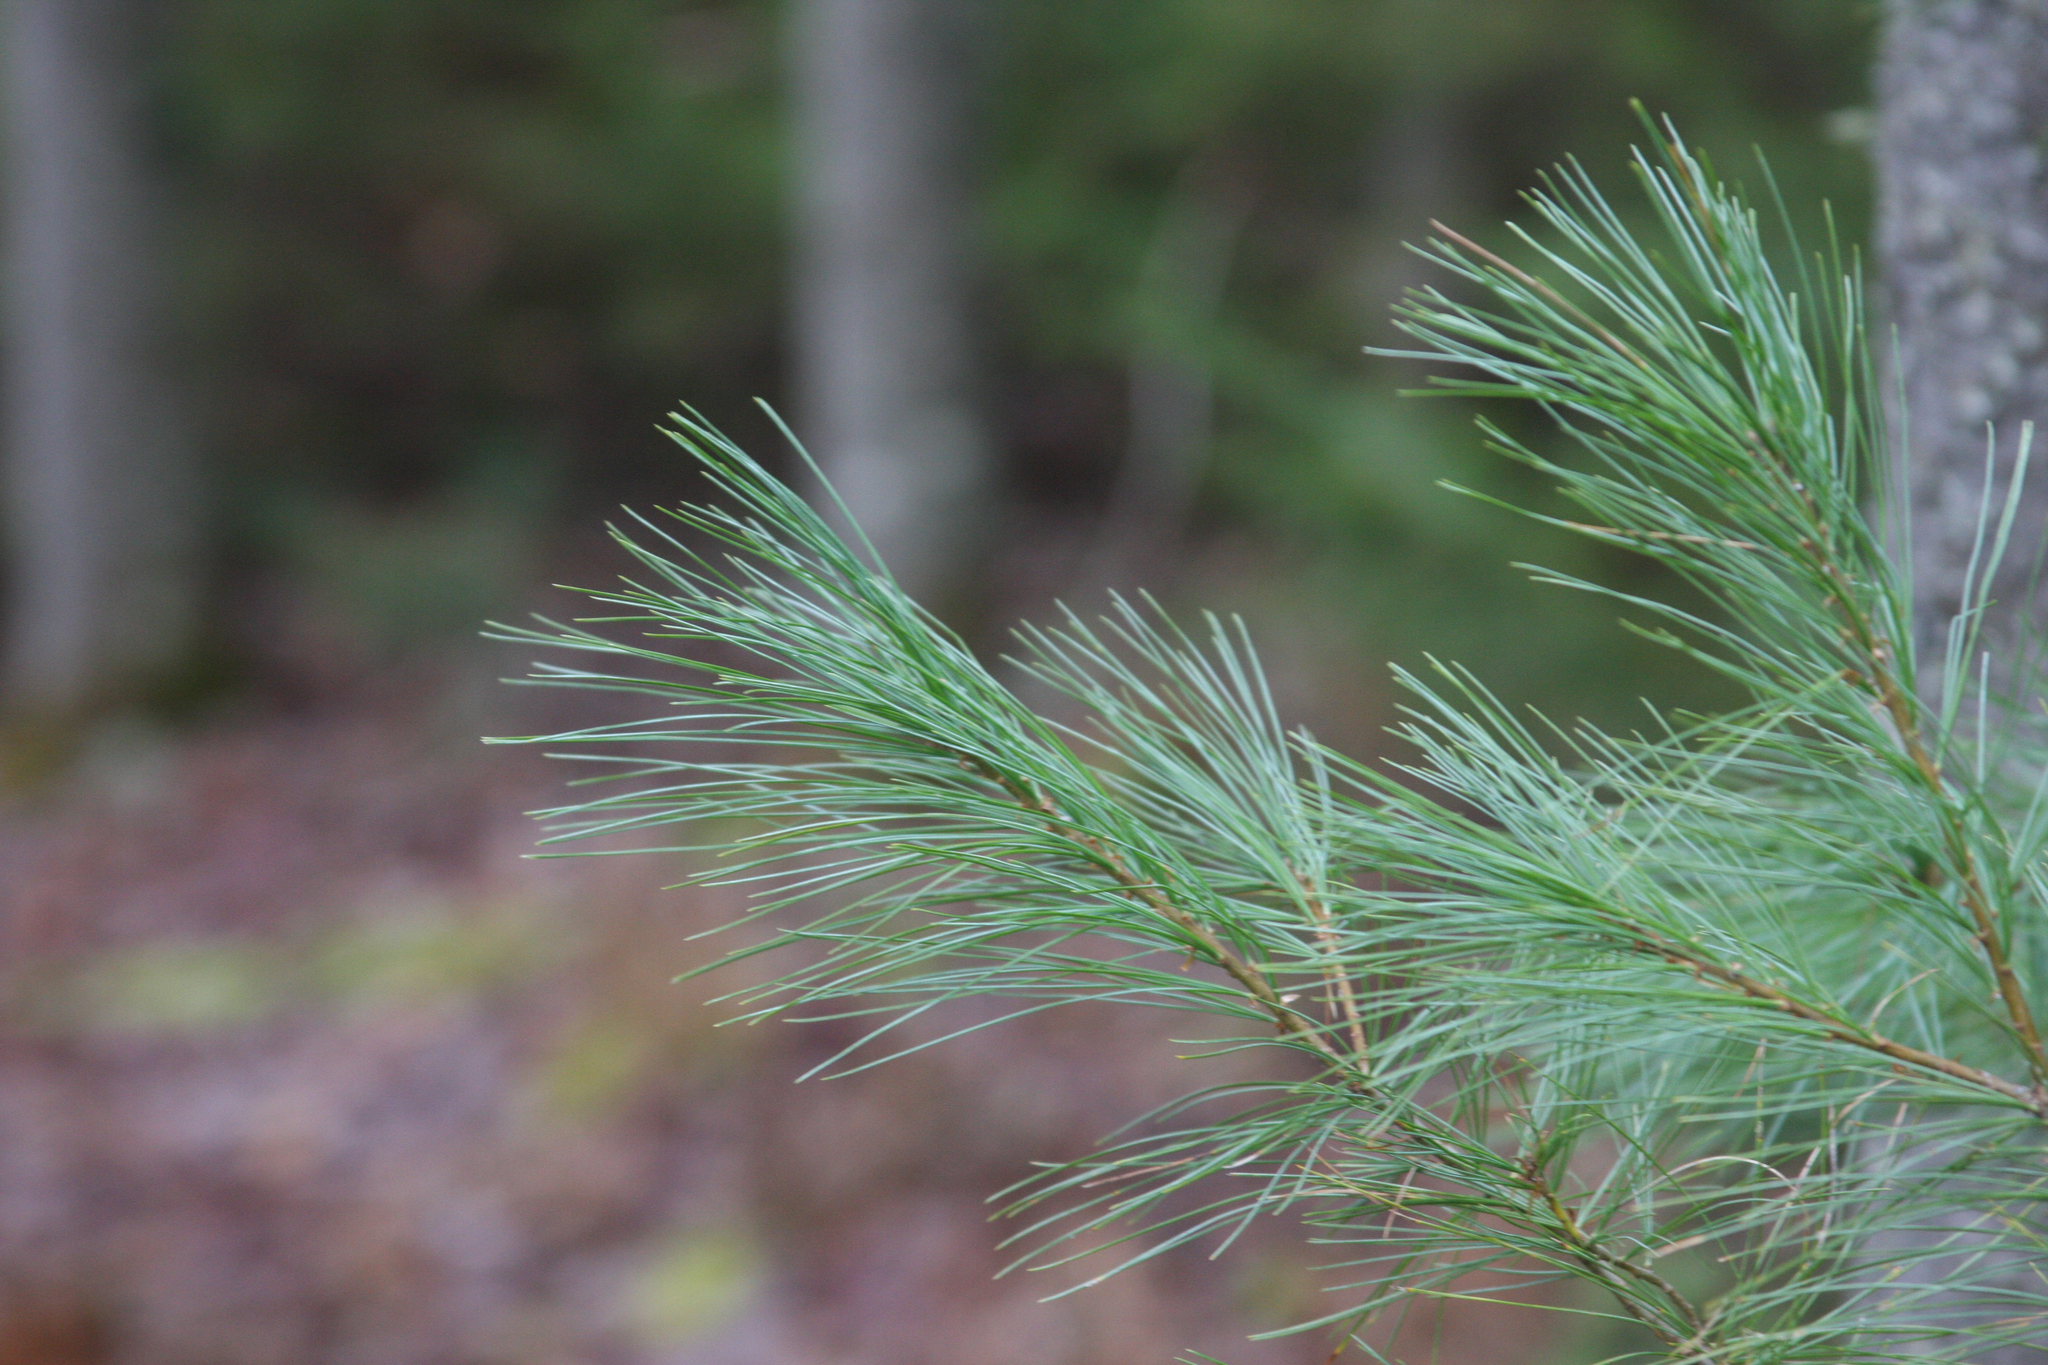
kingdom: Plantae
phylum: Tracheophyta
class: Pinopsida
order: Pinales
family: Pinaceae
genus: Pinus
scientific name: Pinus strobus
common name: Weymouth pine
